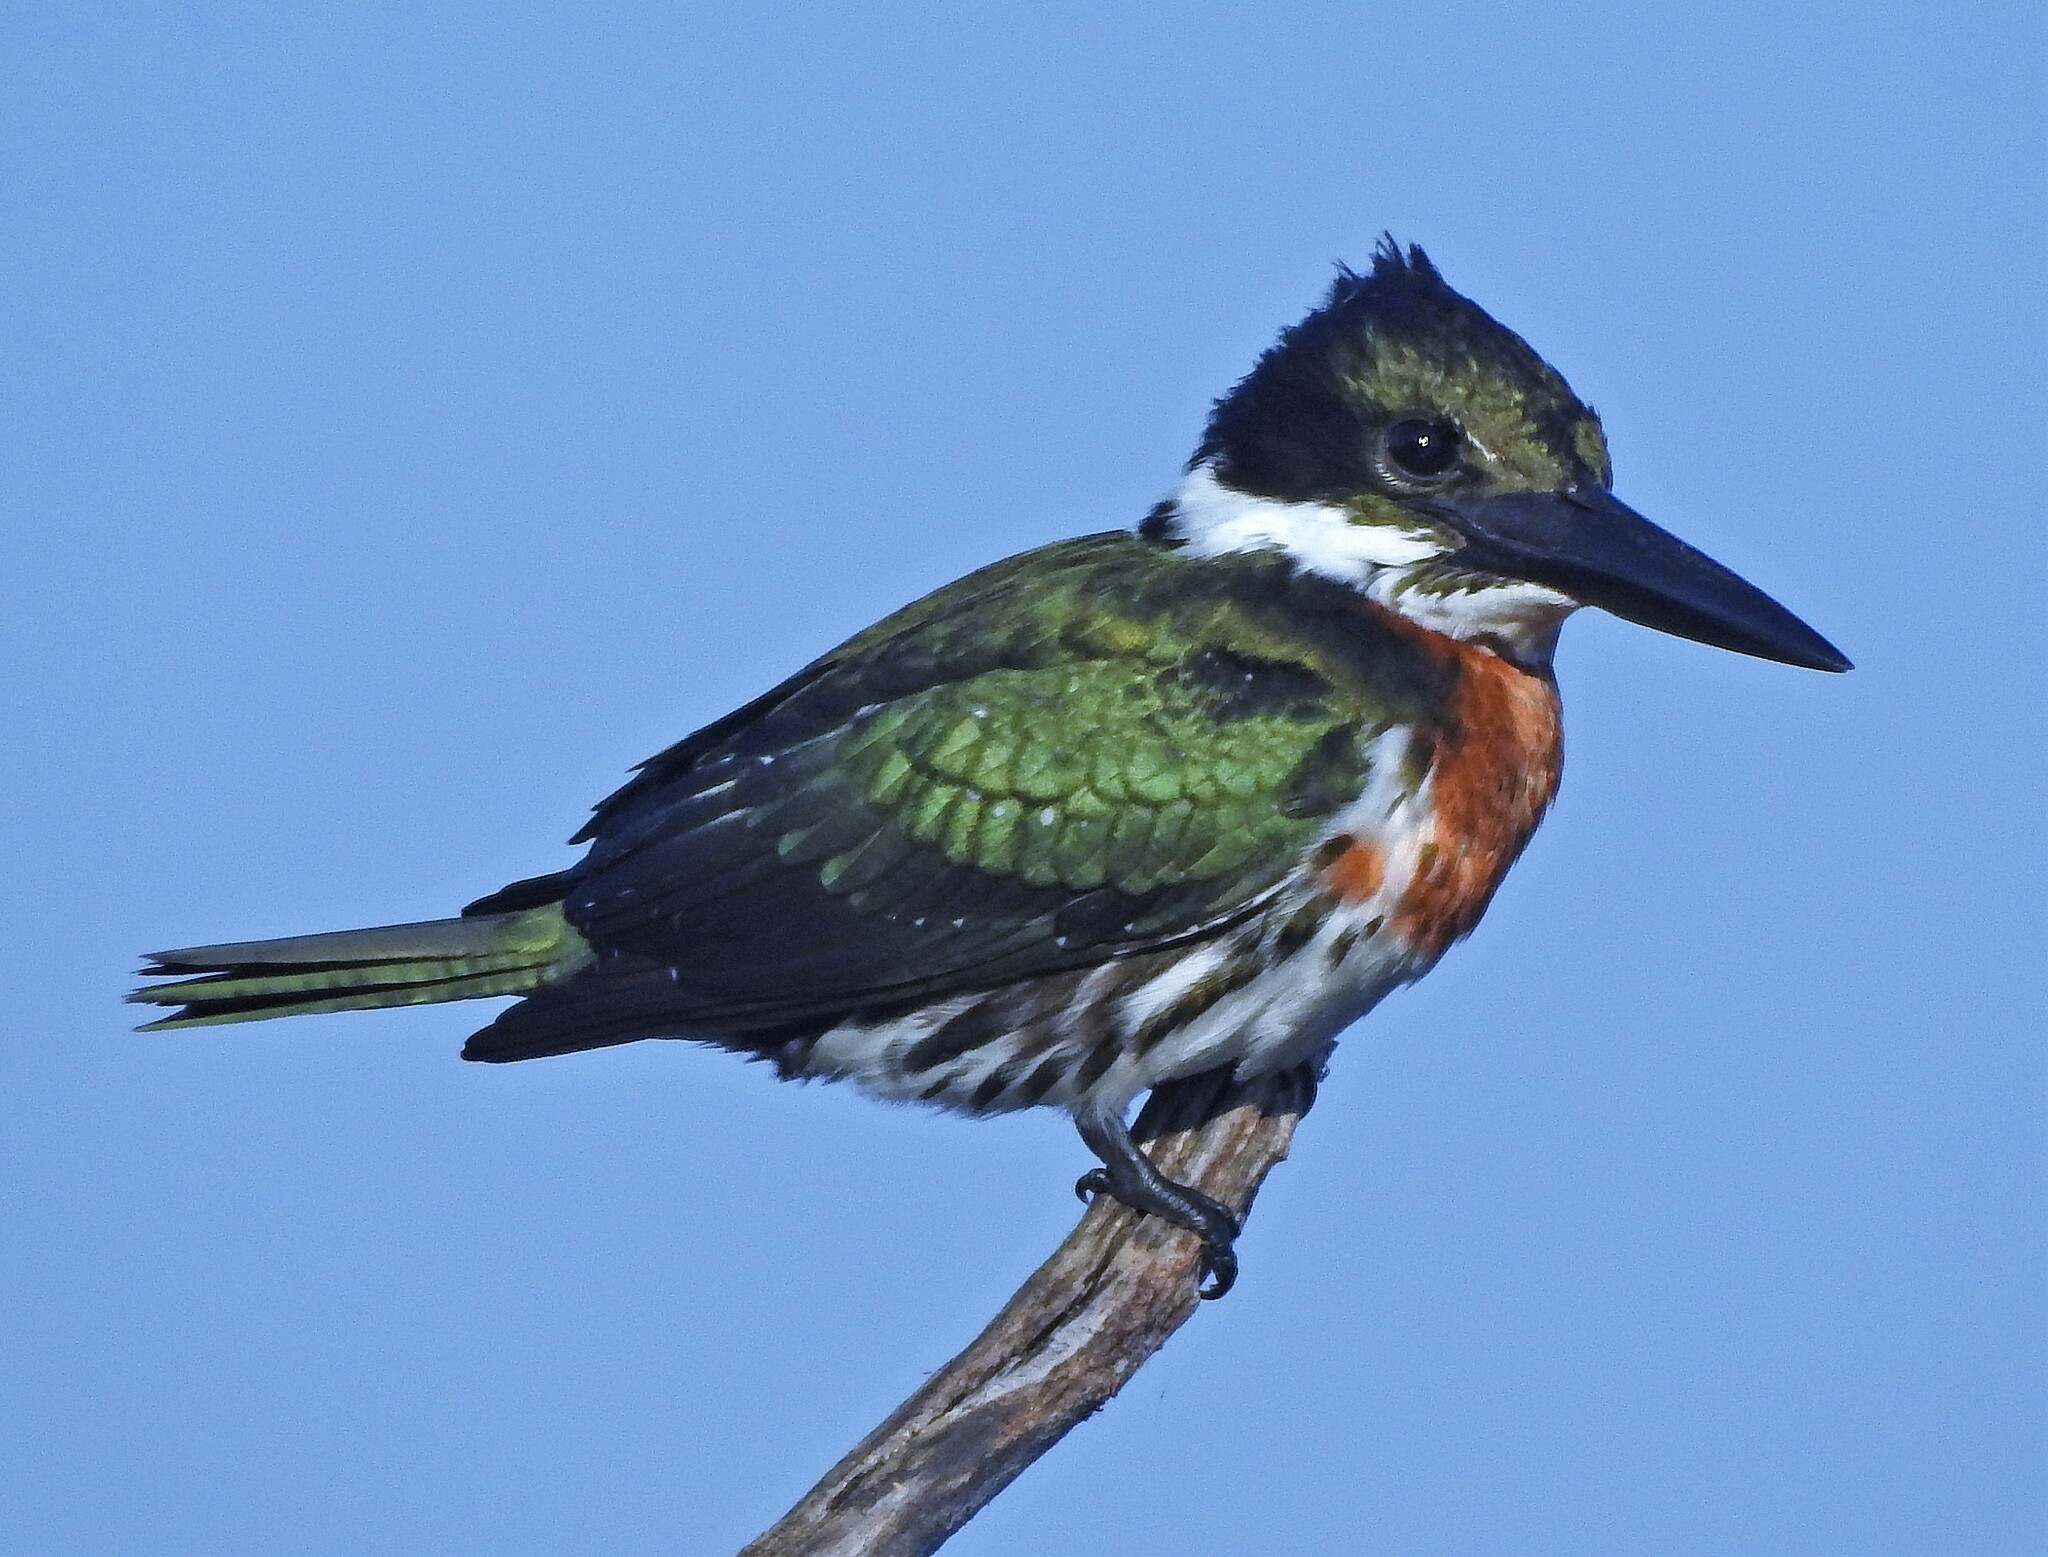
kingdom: Animalia
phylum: Chordata
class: Aves
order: Coraciiformes
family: Alcedinidae
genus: Chloroceryle
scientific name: Chloroceryle amazona
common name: Amazon kingfisher
